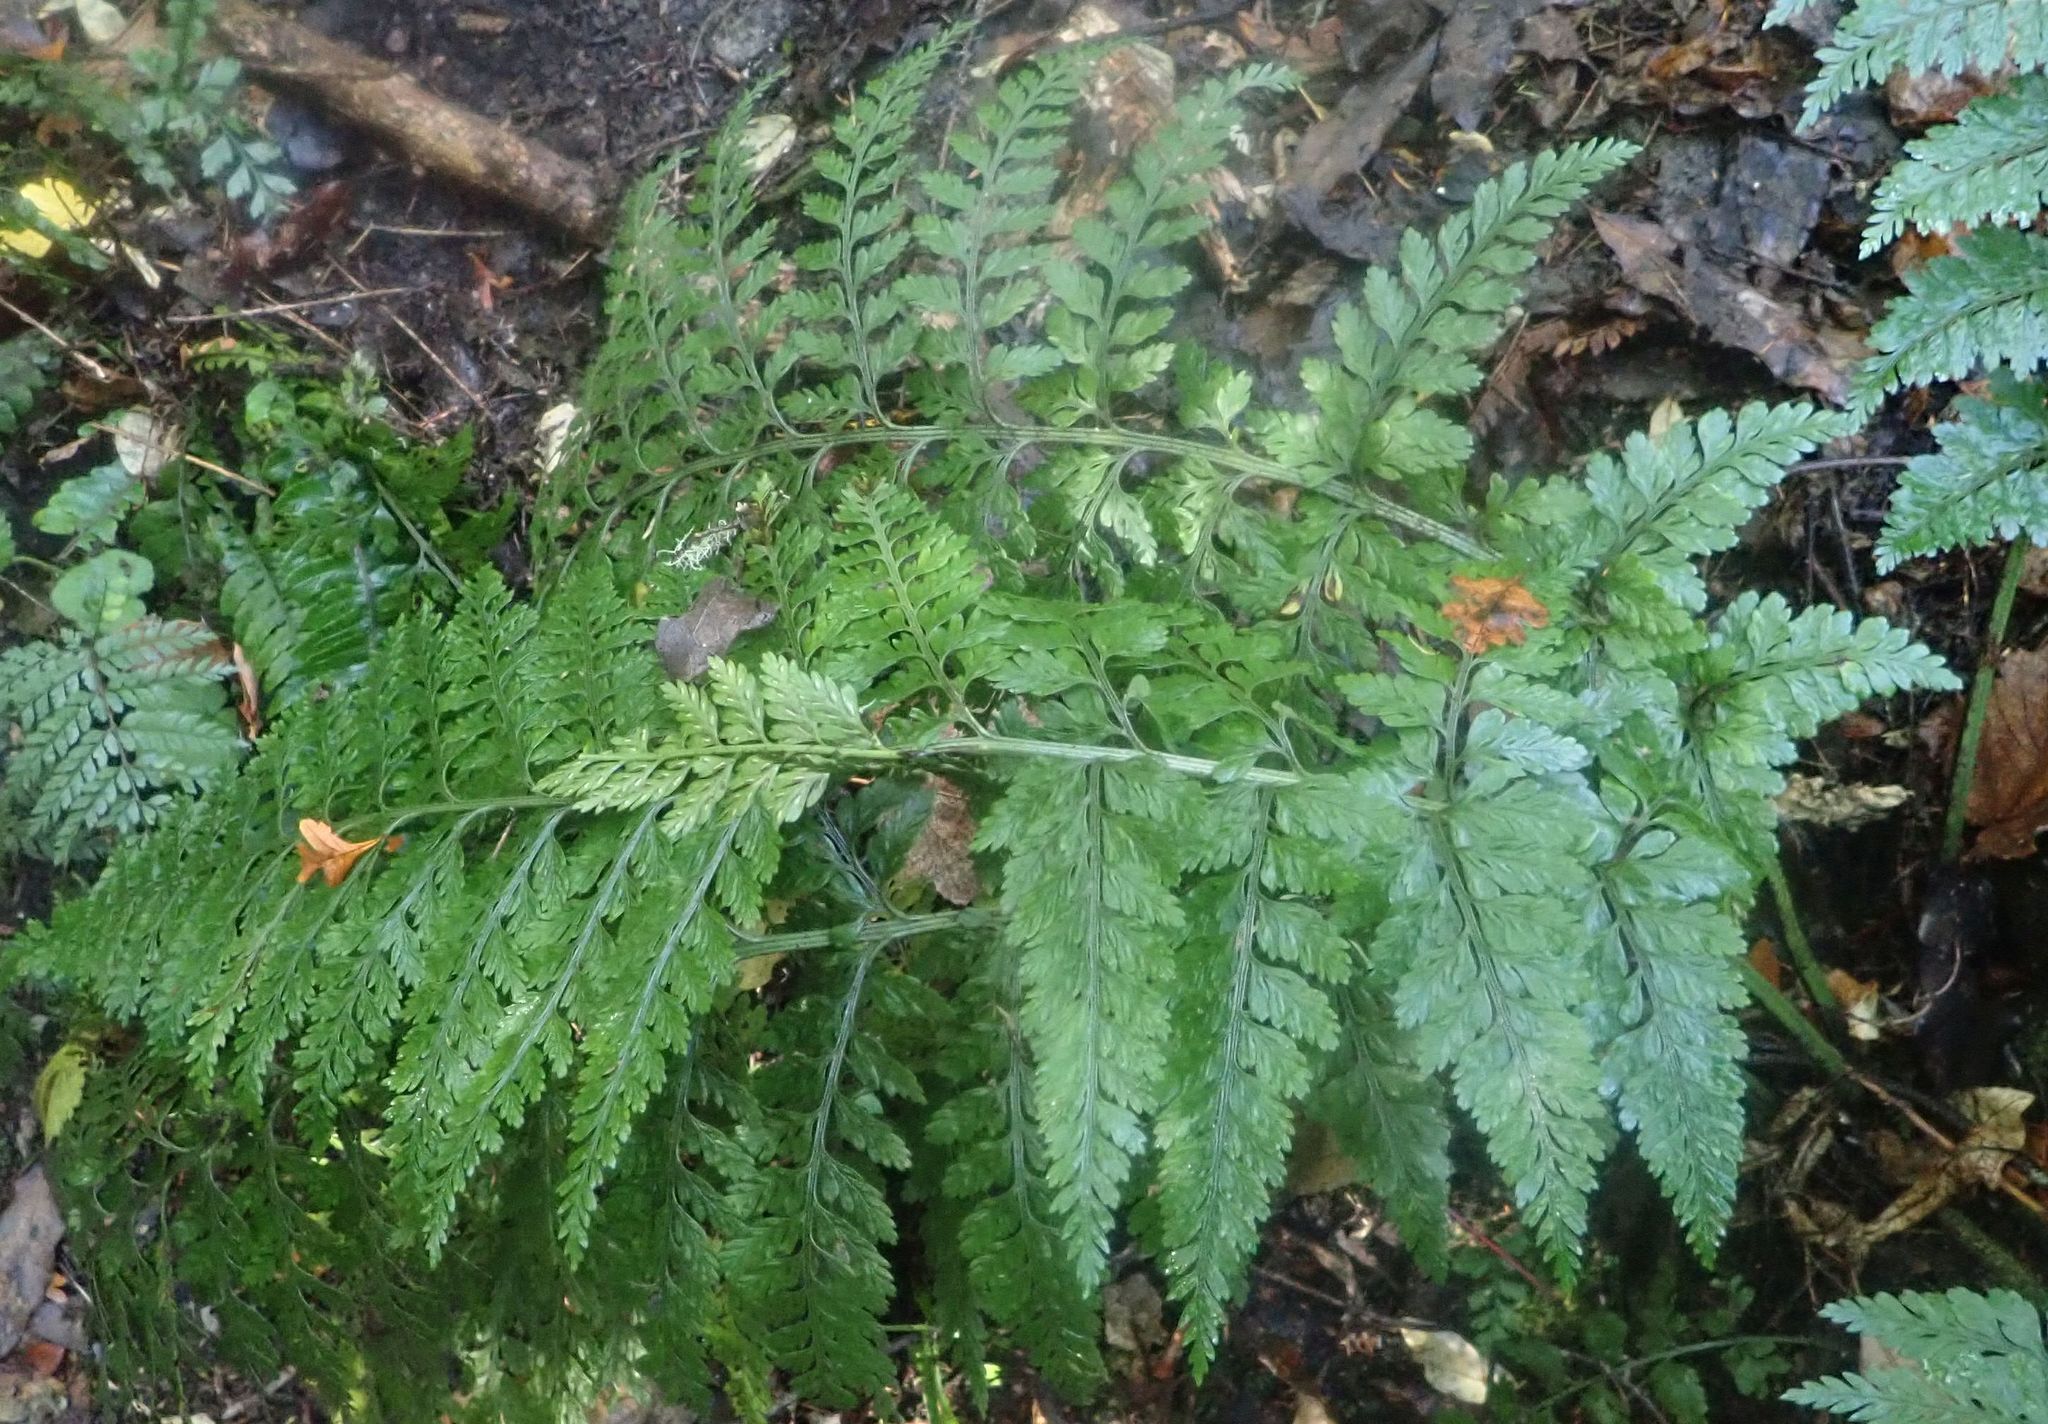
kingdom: Plantae
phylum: Tracheophyta
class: Polypodiopsida
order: Polypodiales
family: Aspleniaceae
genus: Asplenium
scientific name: Asplenium
